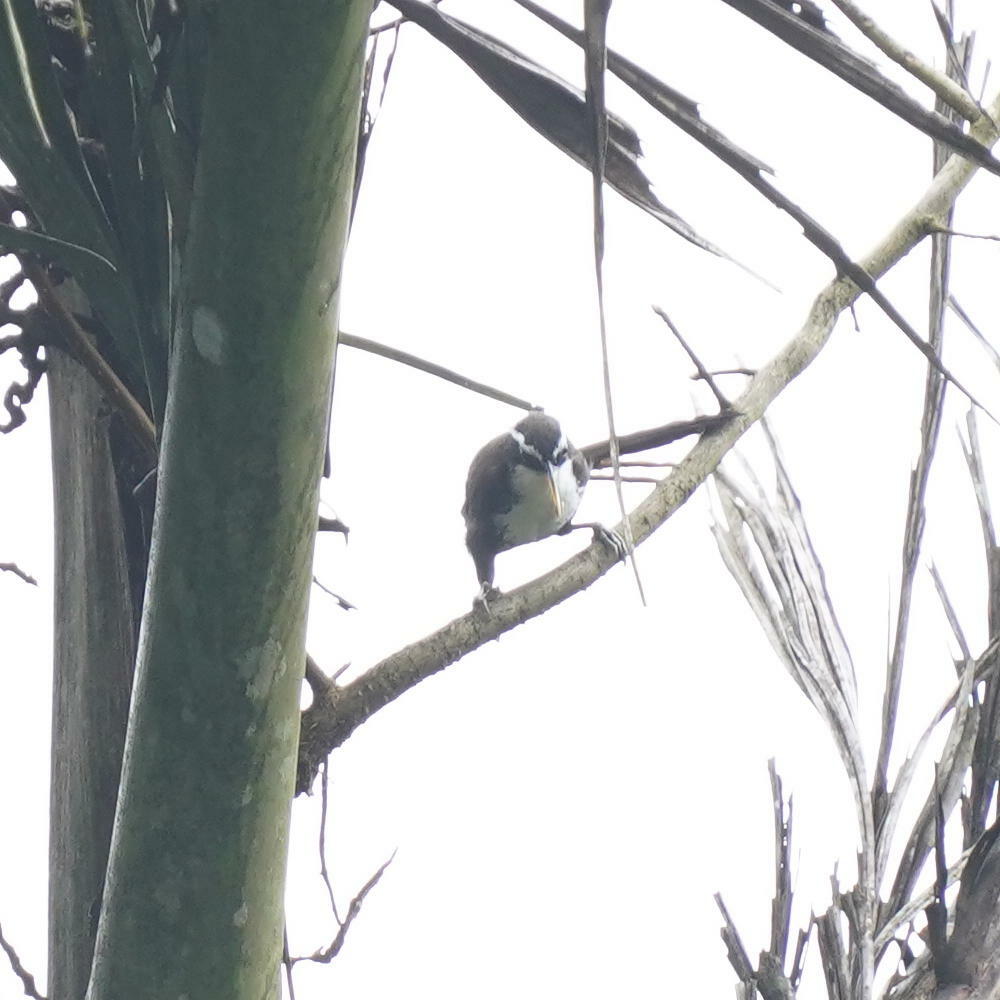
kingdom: Animalia
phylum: Chordata
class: Aves
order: Passeriformes
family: Timaliidae
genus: Pomatorhinus
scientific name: Pomatorhinus horsfieldii
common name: Indian scimitar babbler
